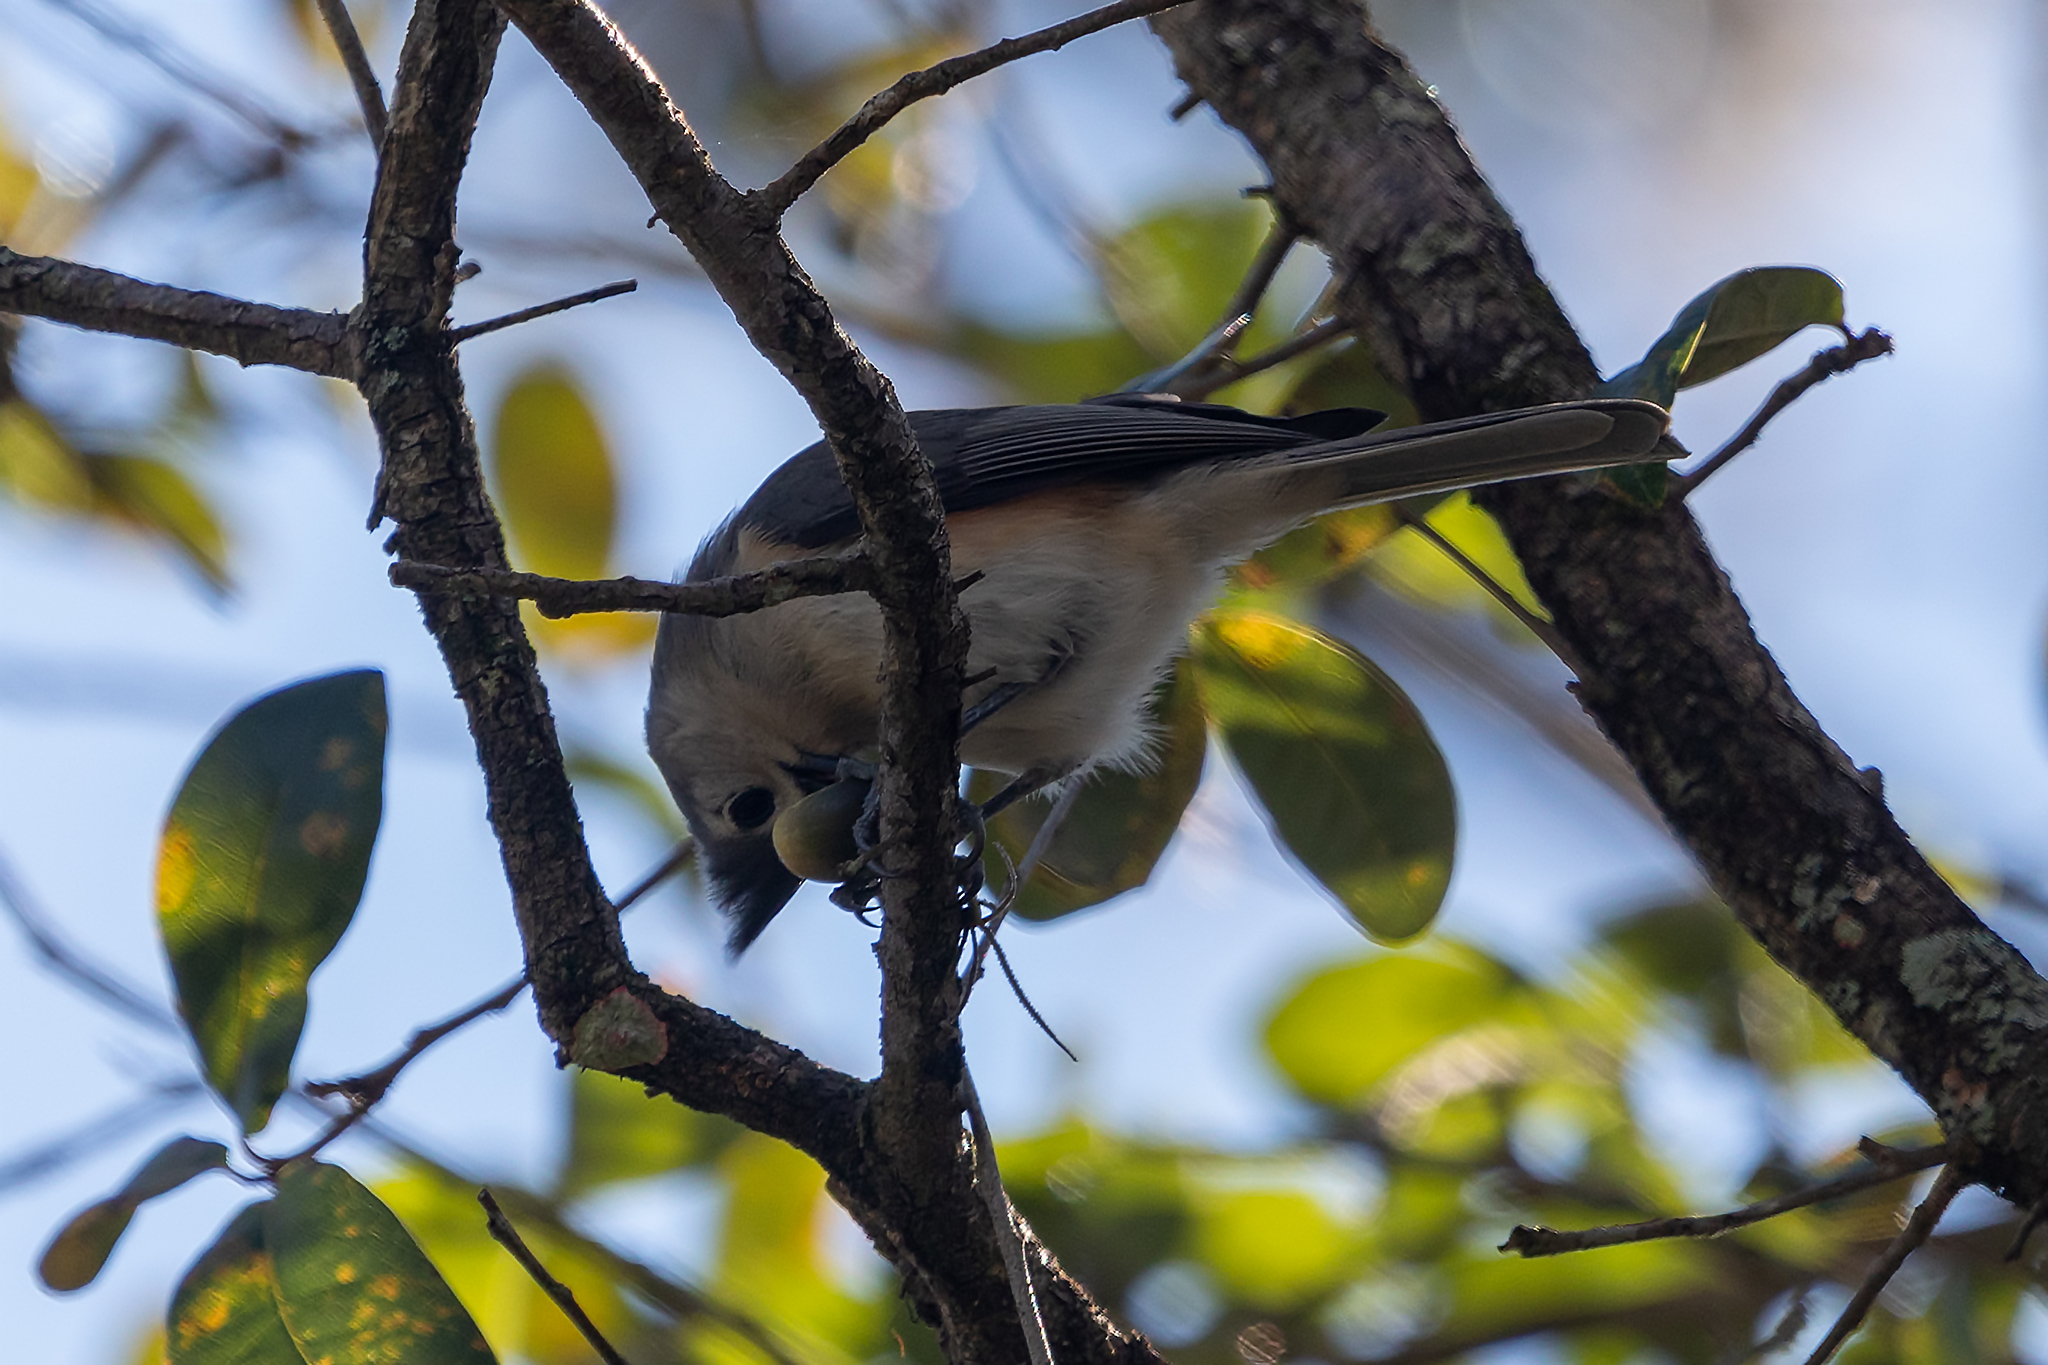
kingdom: Animalia
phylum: Chordata
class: Aves
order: Passeriformes
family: Paridae
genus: Baeolophus
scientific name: Baeolophus bicolor
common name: Tufted titmouse
